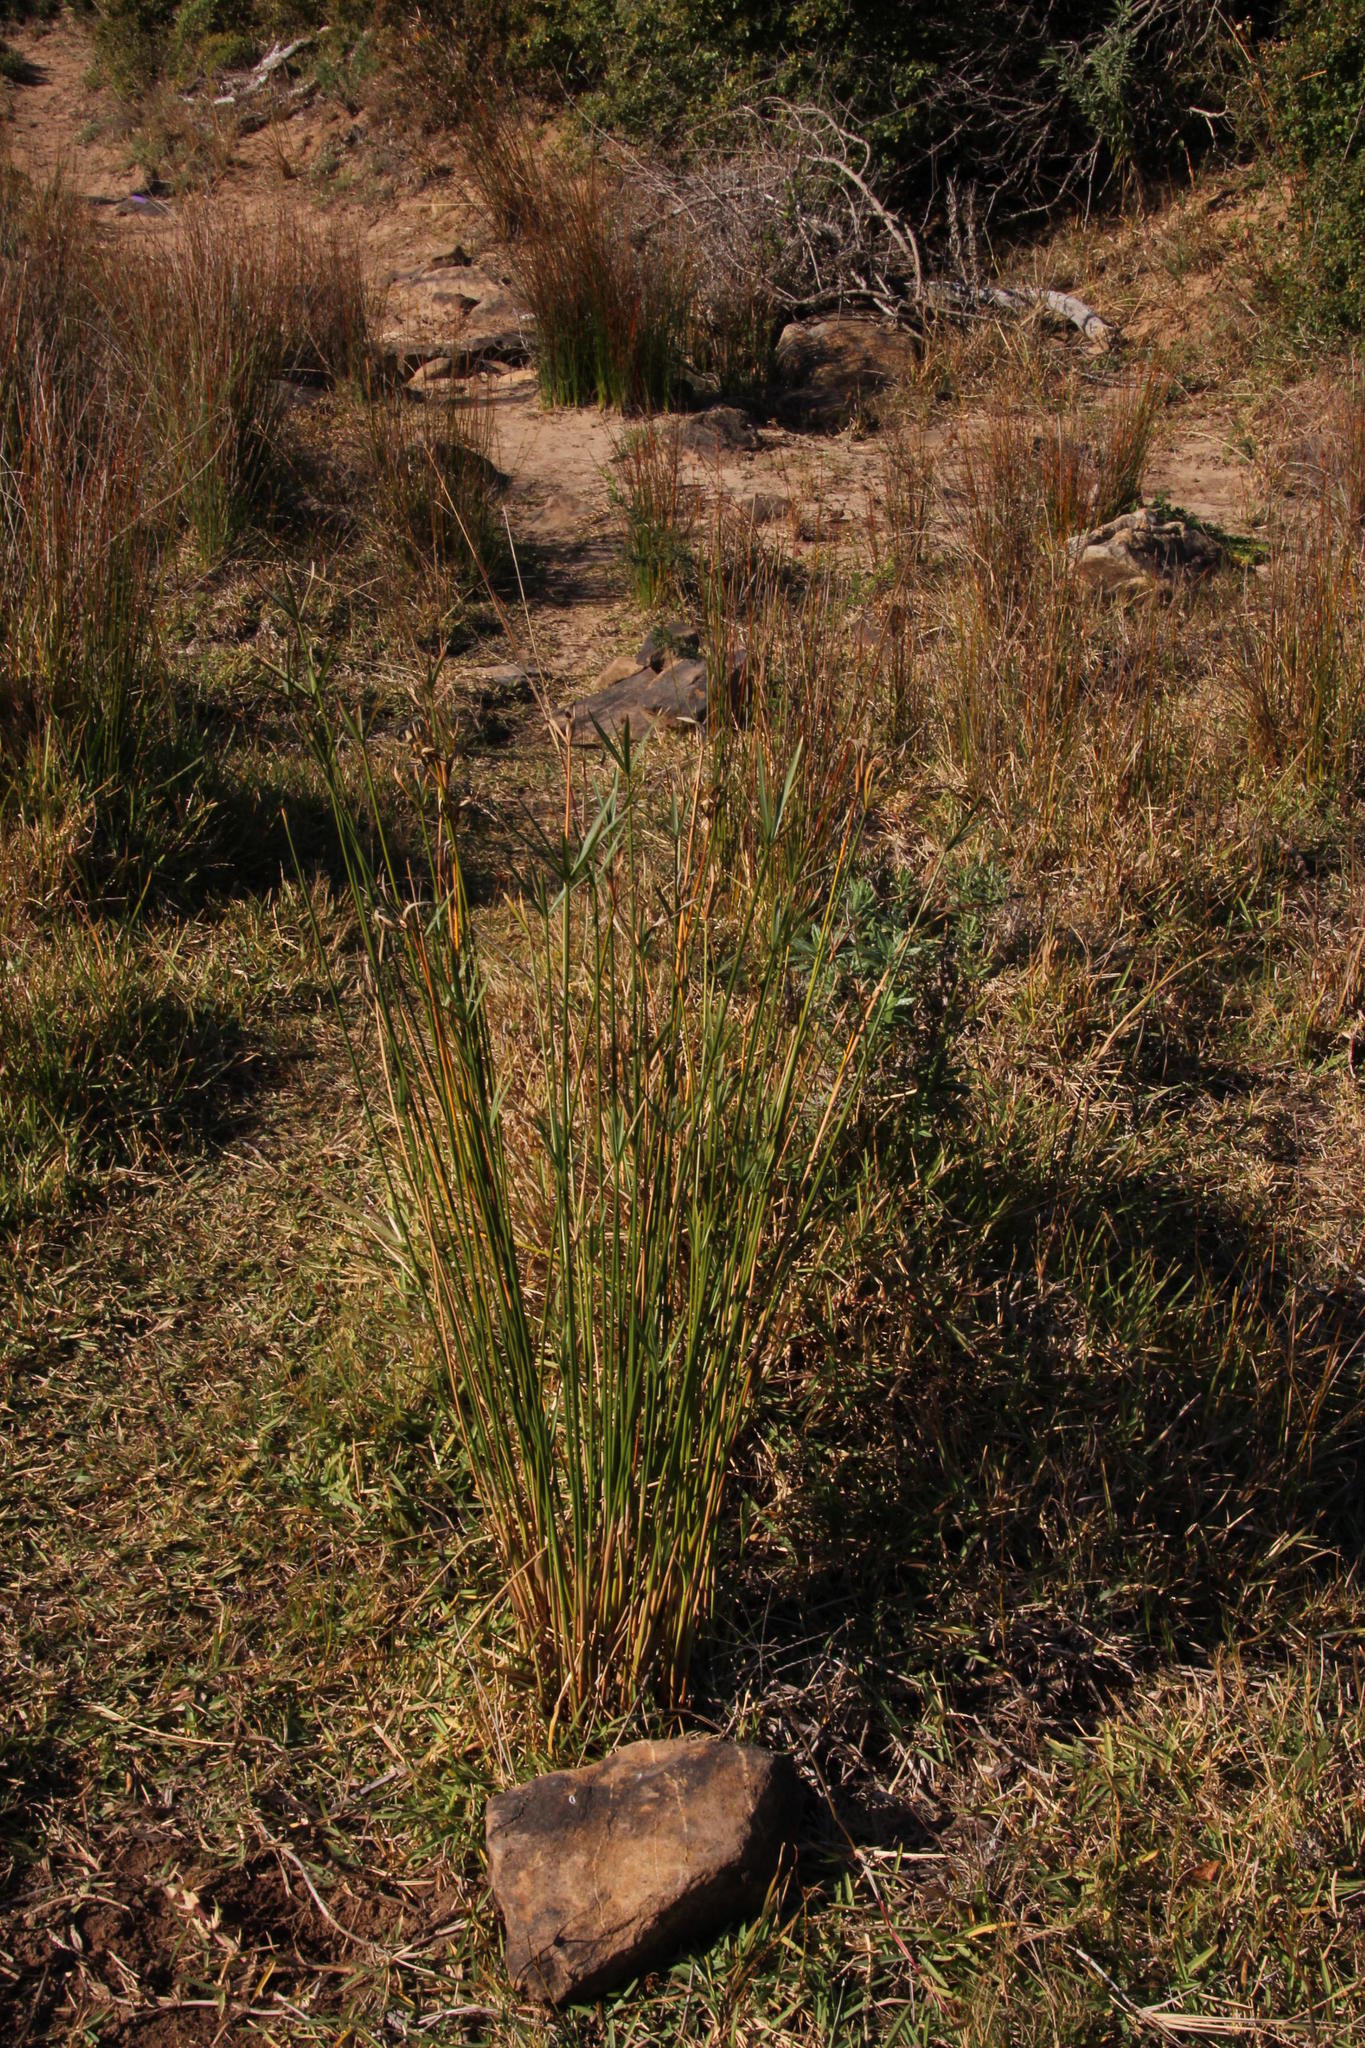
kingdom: Plantae
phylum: Tracheophyta
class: Liliopsida
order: Poales
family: Cyperaceae
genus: Cyperus
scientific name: Cyperus textilis
